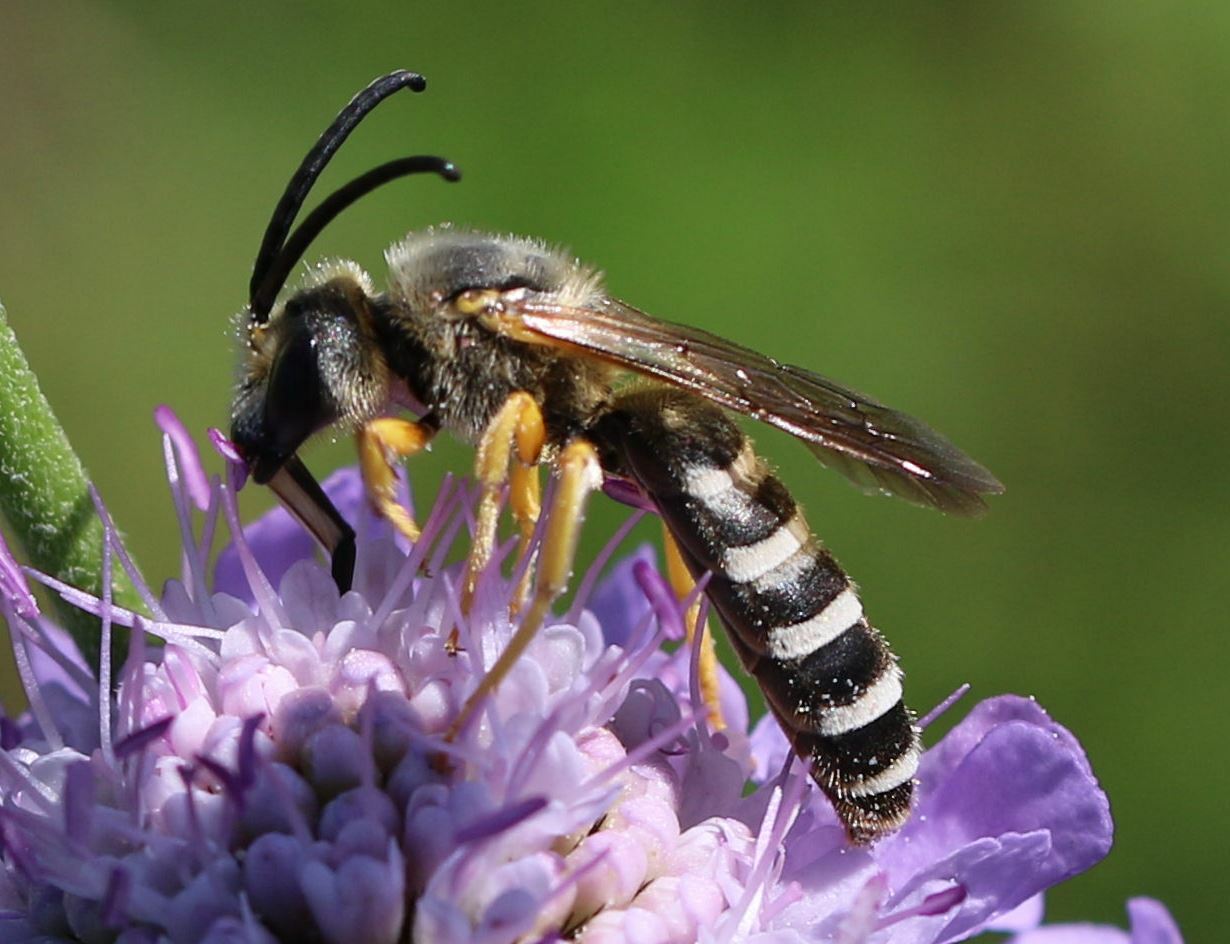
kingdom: Animalia
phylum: Arthropoda
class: Insecta
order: Hymenoptera
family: Halictidae
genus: Halictus
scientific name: Halictus scabiosae
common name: Great banded furrow bee
